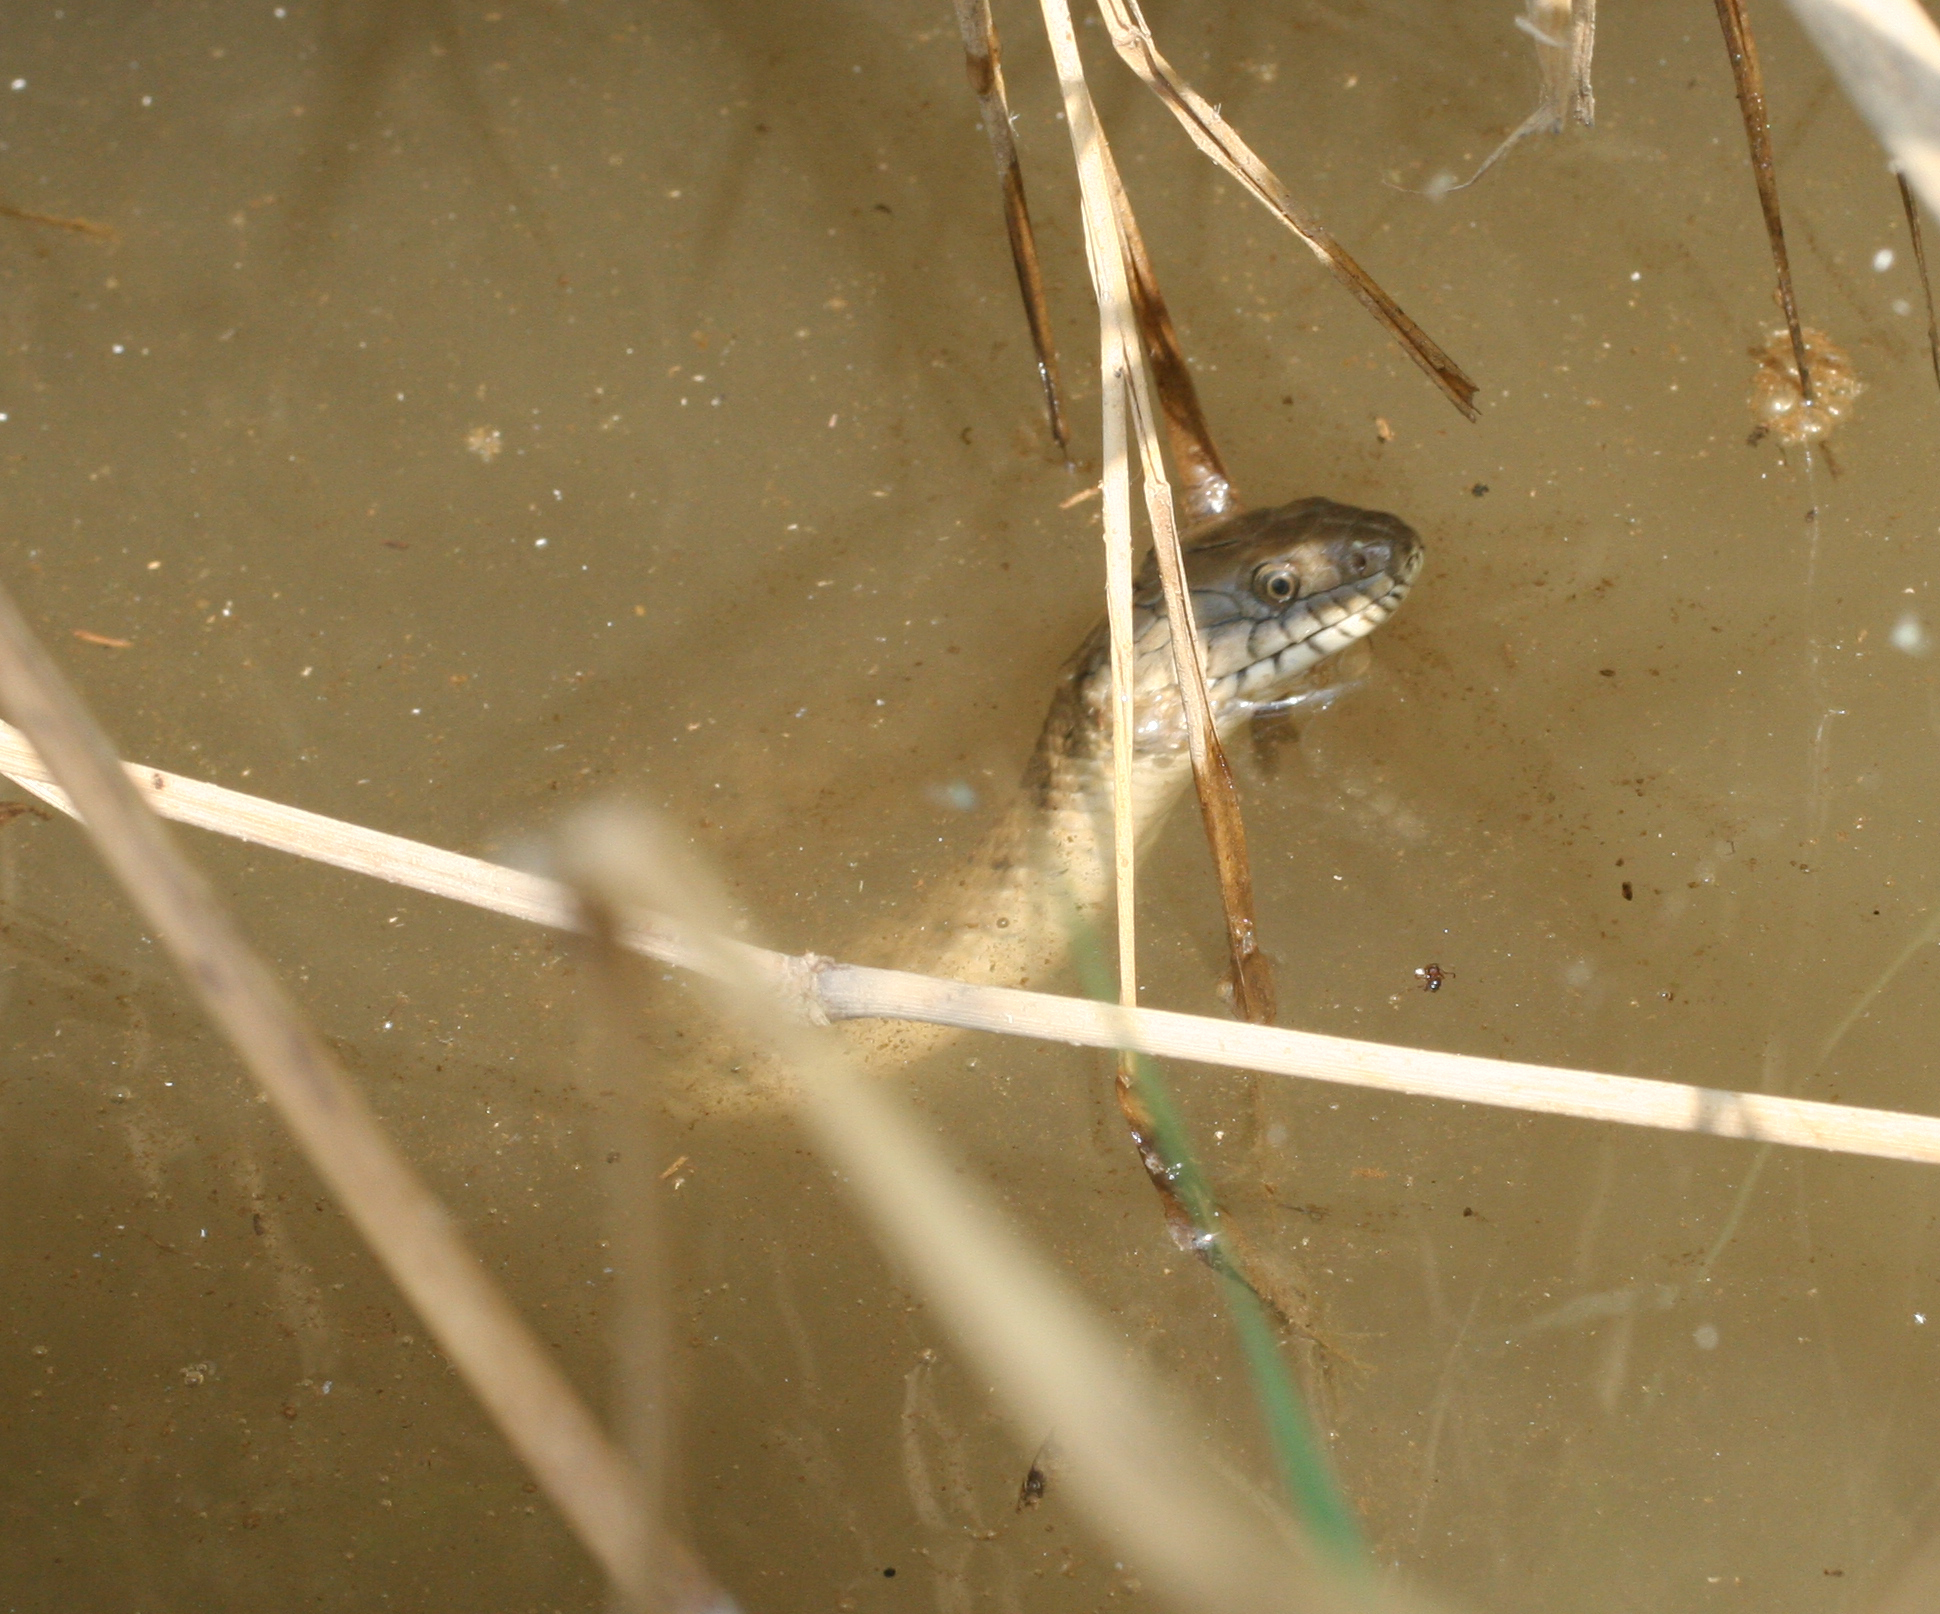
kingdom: Animalia
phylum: Chordata
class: Squamata
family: Colubridae
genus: Natrix
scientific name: Natrix tessellata
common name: Dice snake
